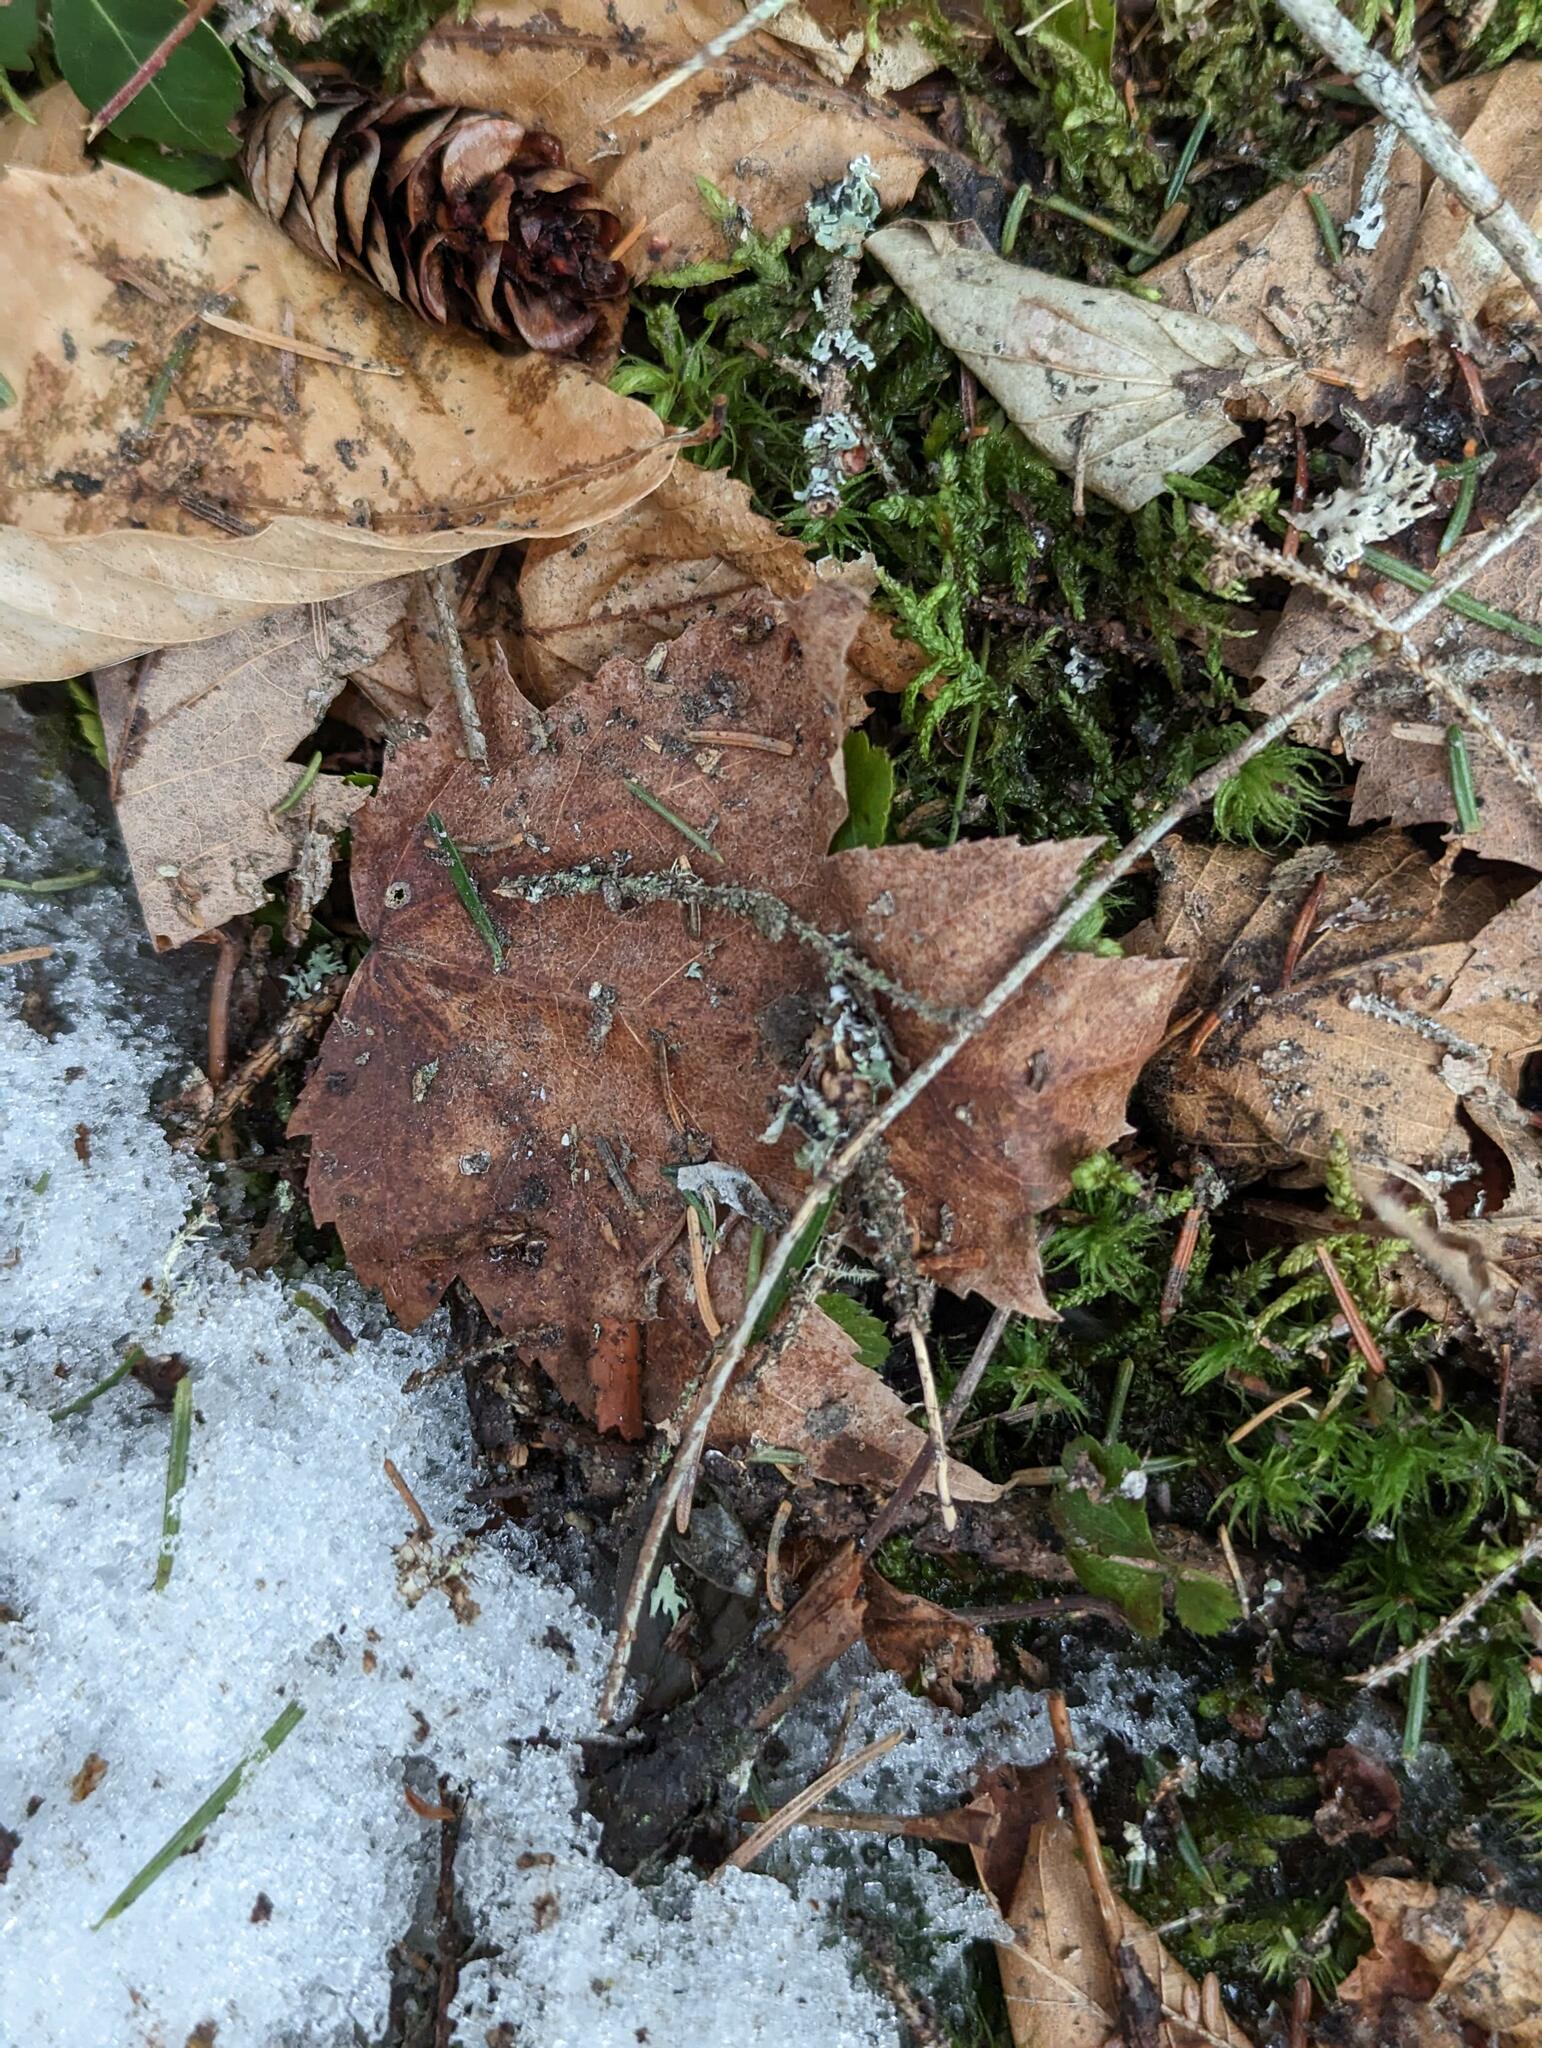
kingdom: Plantae
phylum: Tracheophyta
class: Magnoliopsida
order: Sapindales
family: Sapindaceae
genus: Acer
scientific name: Acer rubrum
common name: Red maple
